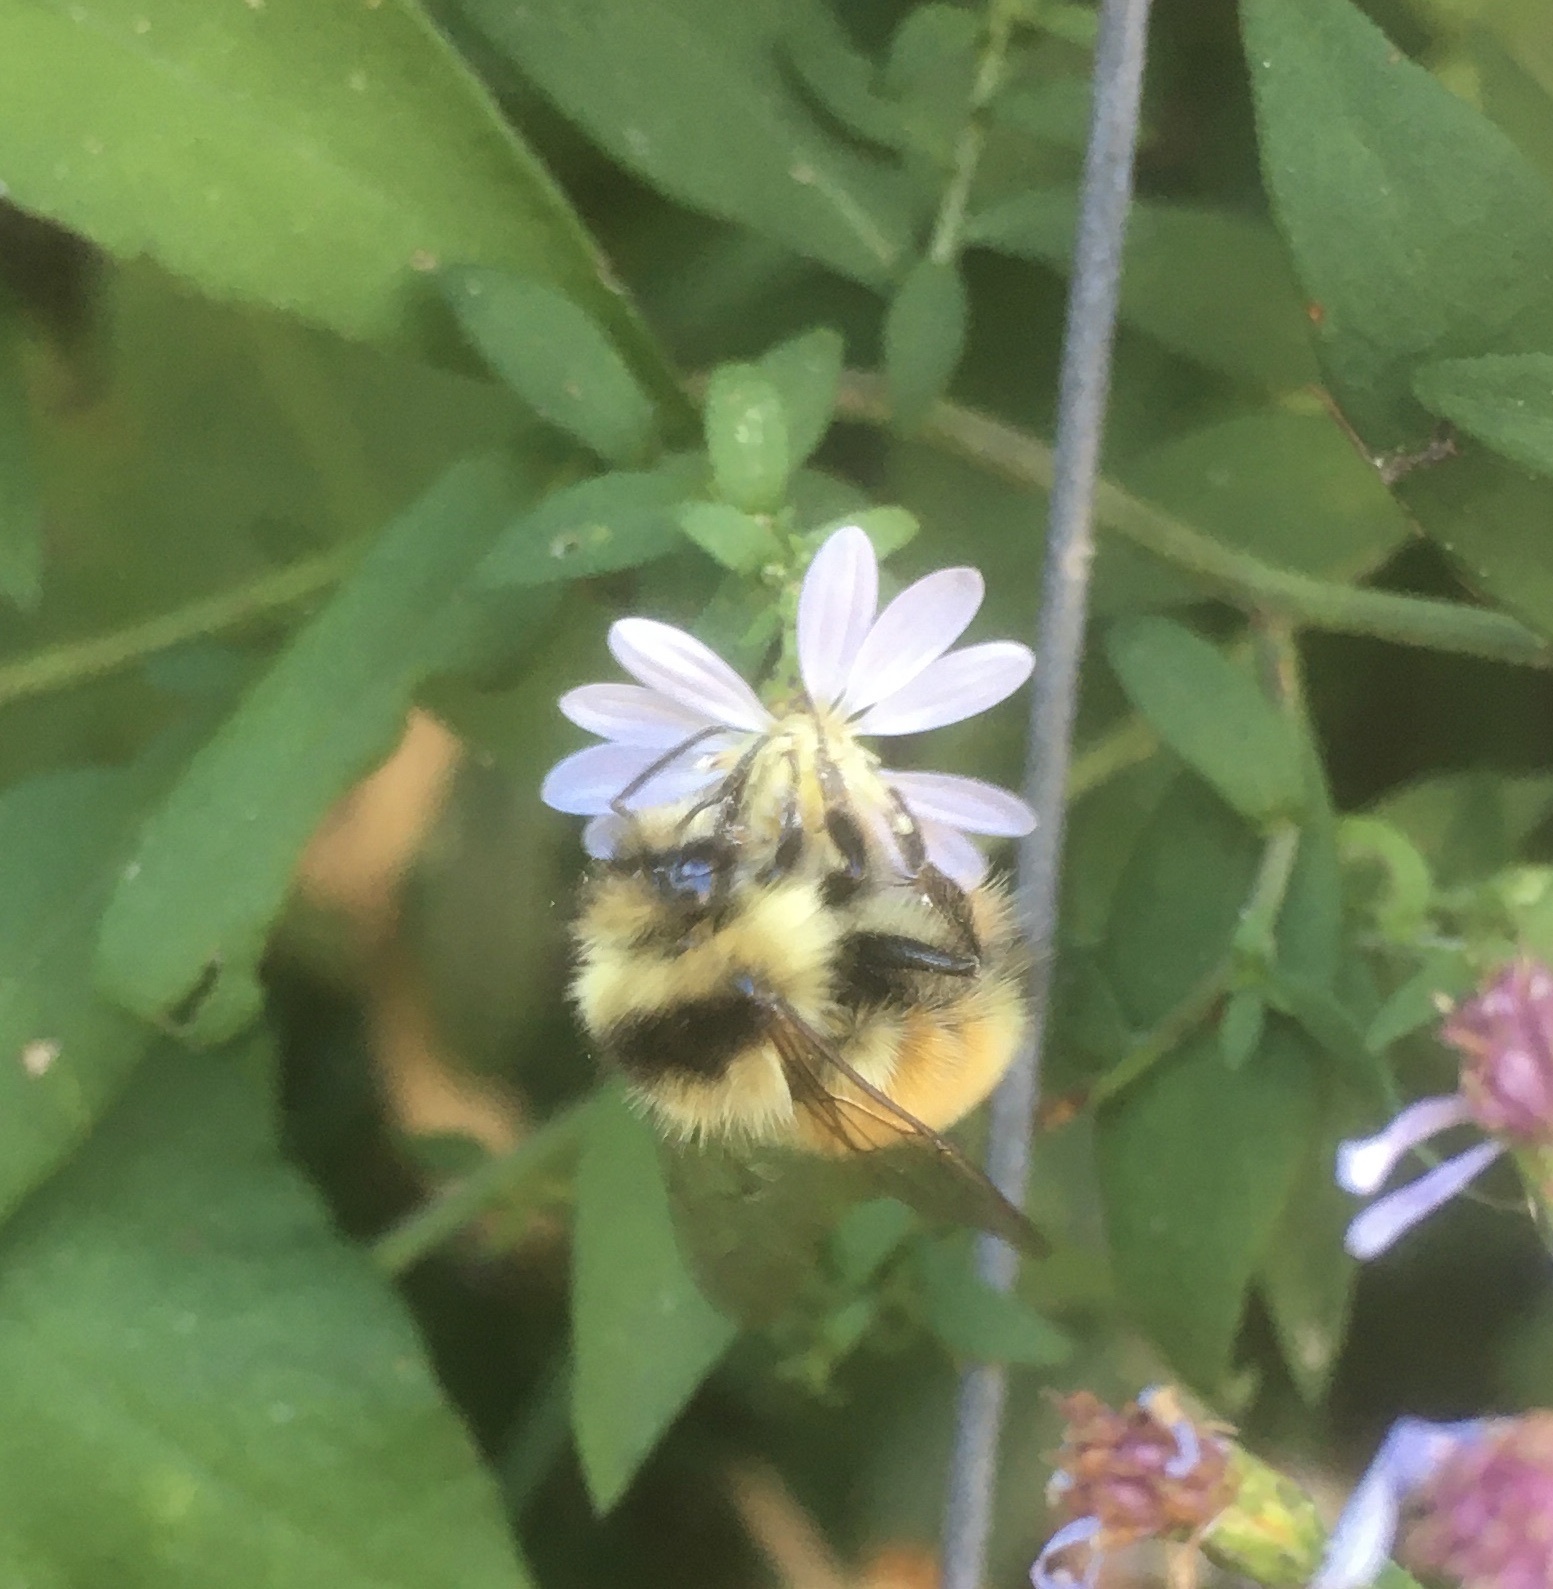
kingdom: Animalia
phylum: Arthropoda
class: Insecta
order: Hymenoptera
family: Apidae
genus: Bombus
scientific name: Bombus ternarius
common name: Tri-colored bumble bee
